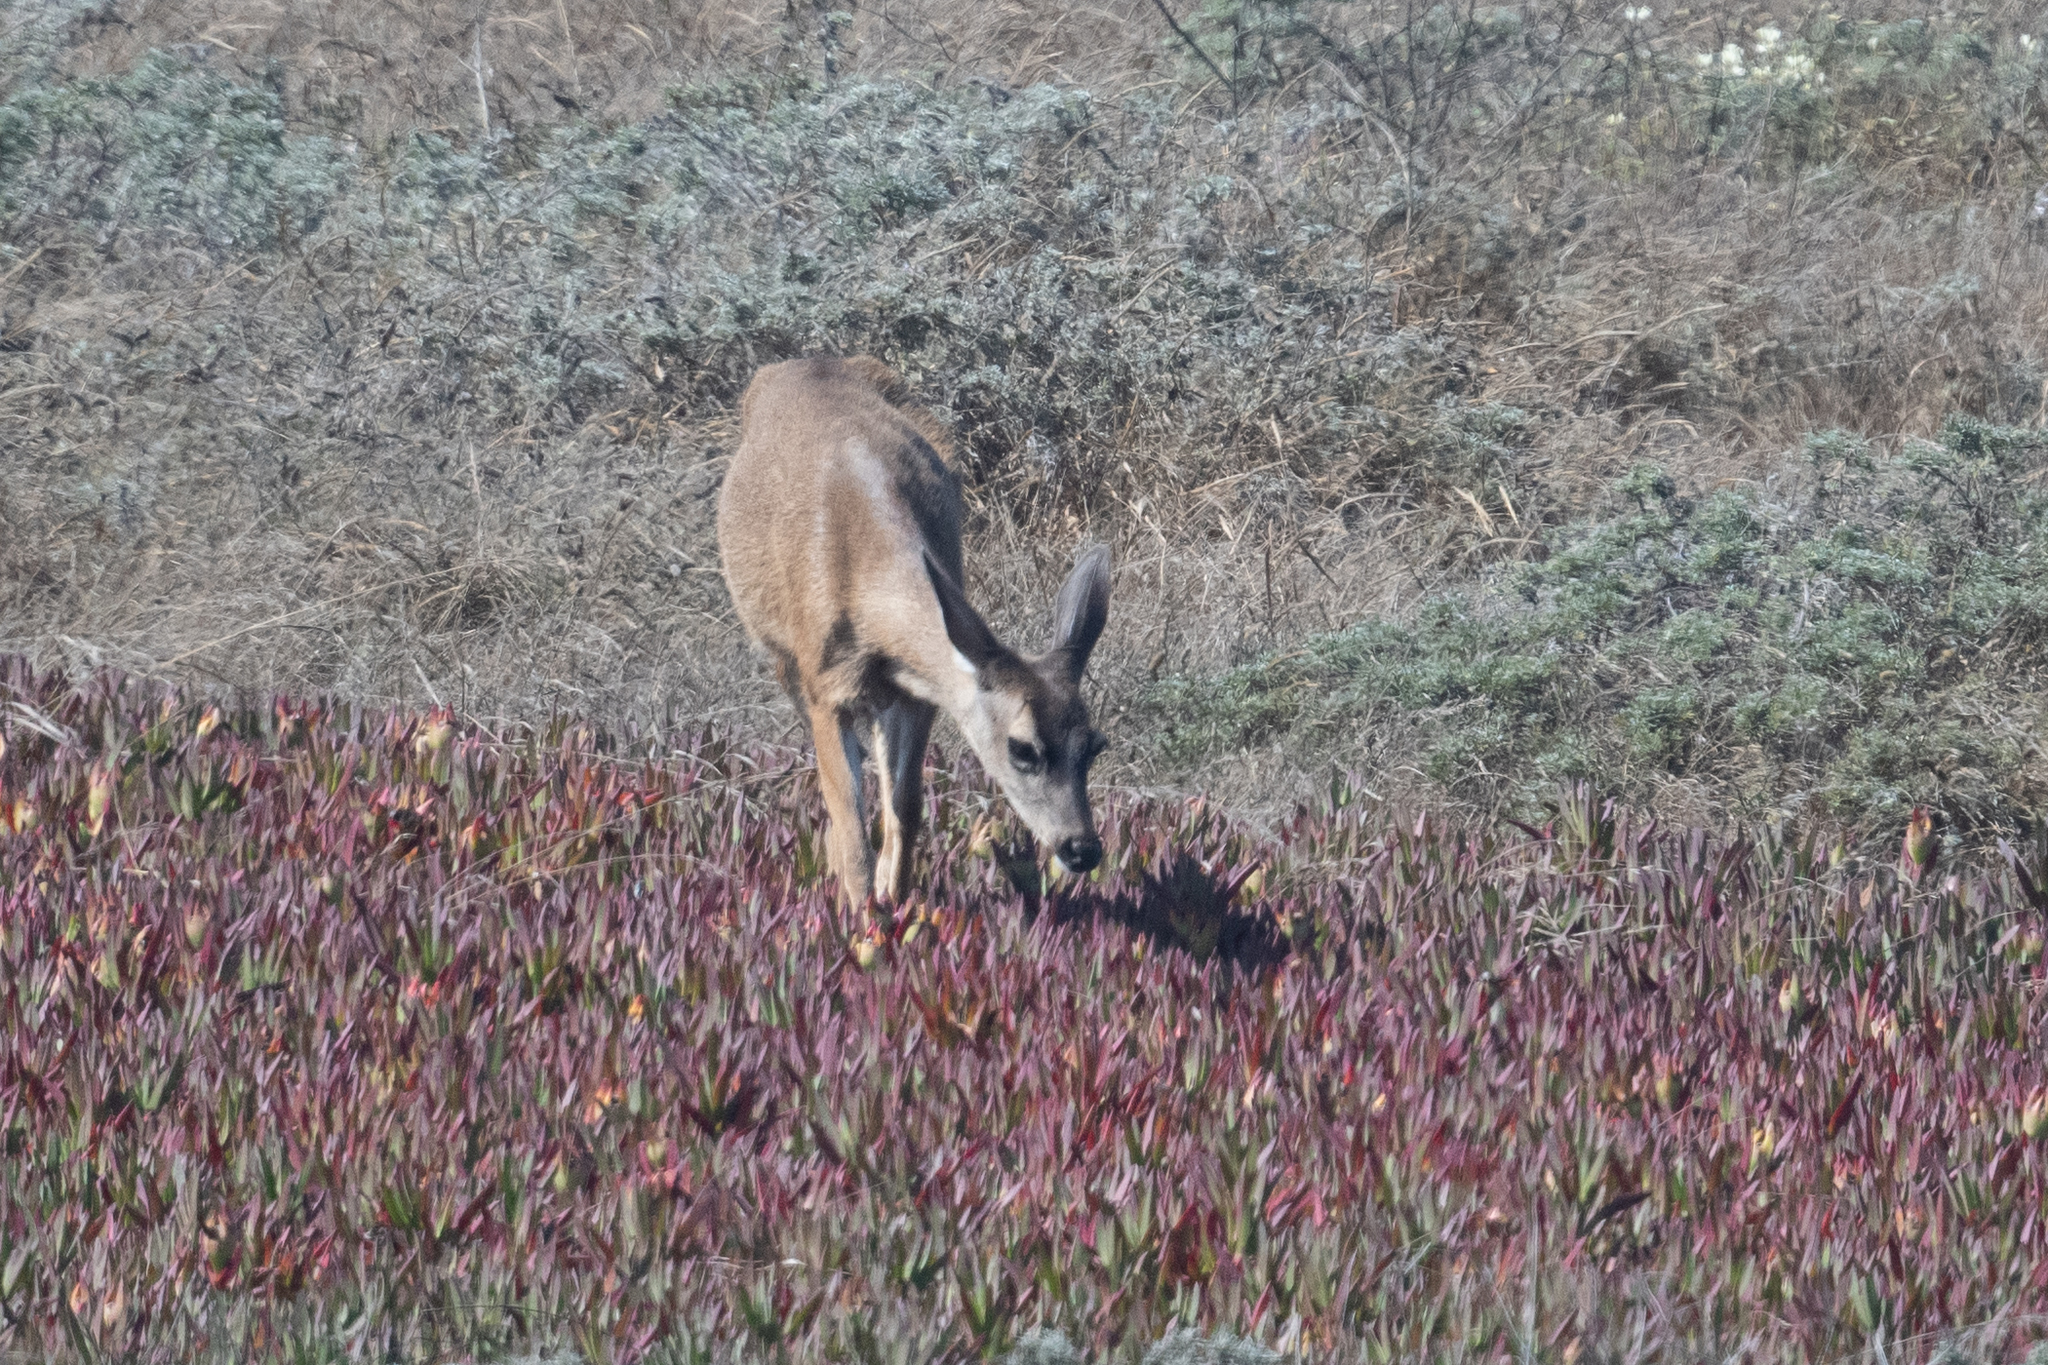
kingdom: Animalia
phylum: Chordata
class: Mammalia
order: Artiodactyla
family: Cervidae
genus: Odocoileus
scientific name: Odocoileus hemionus
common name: Mule deer
